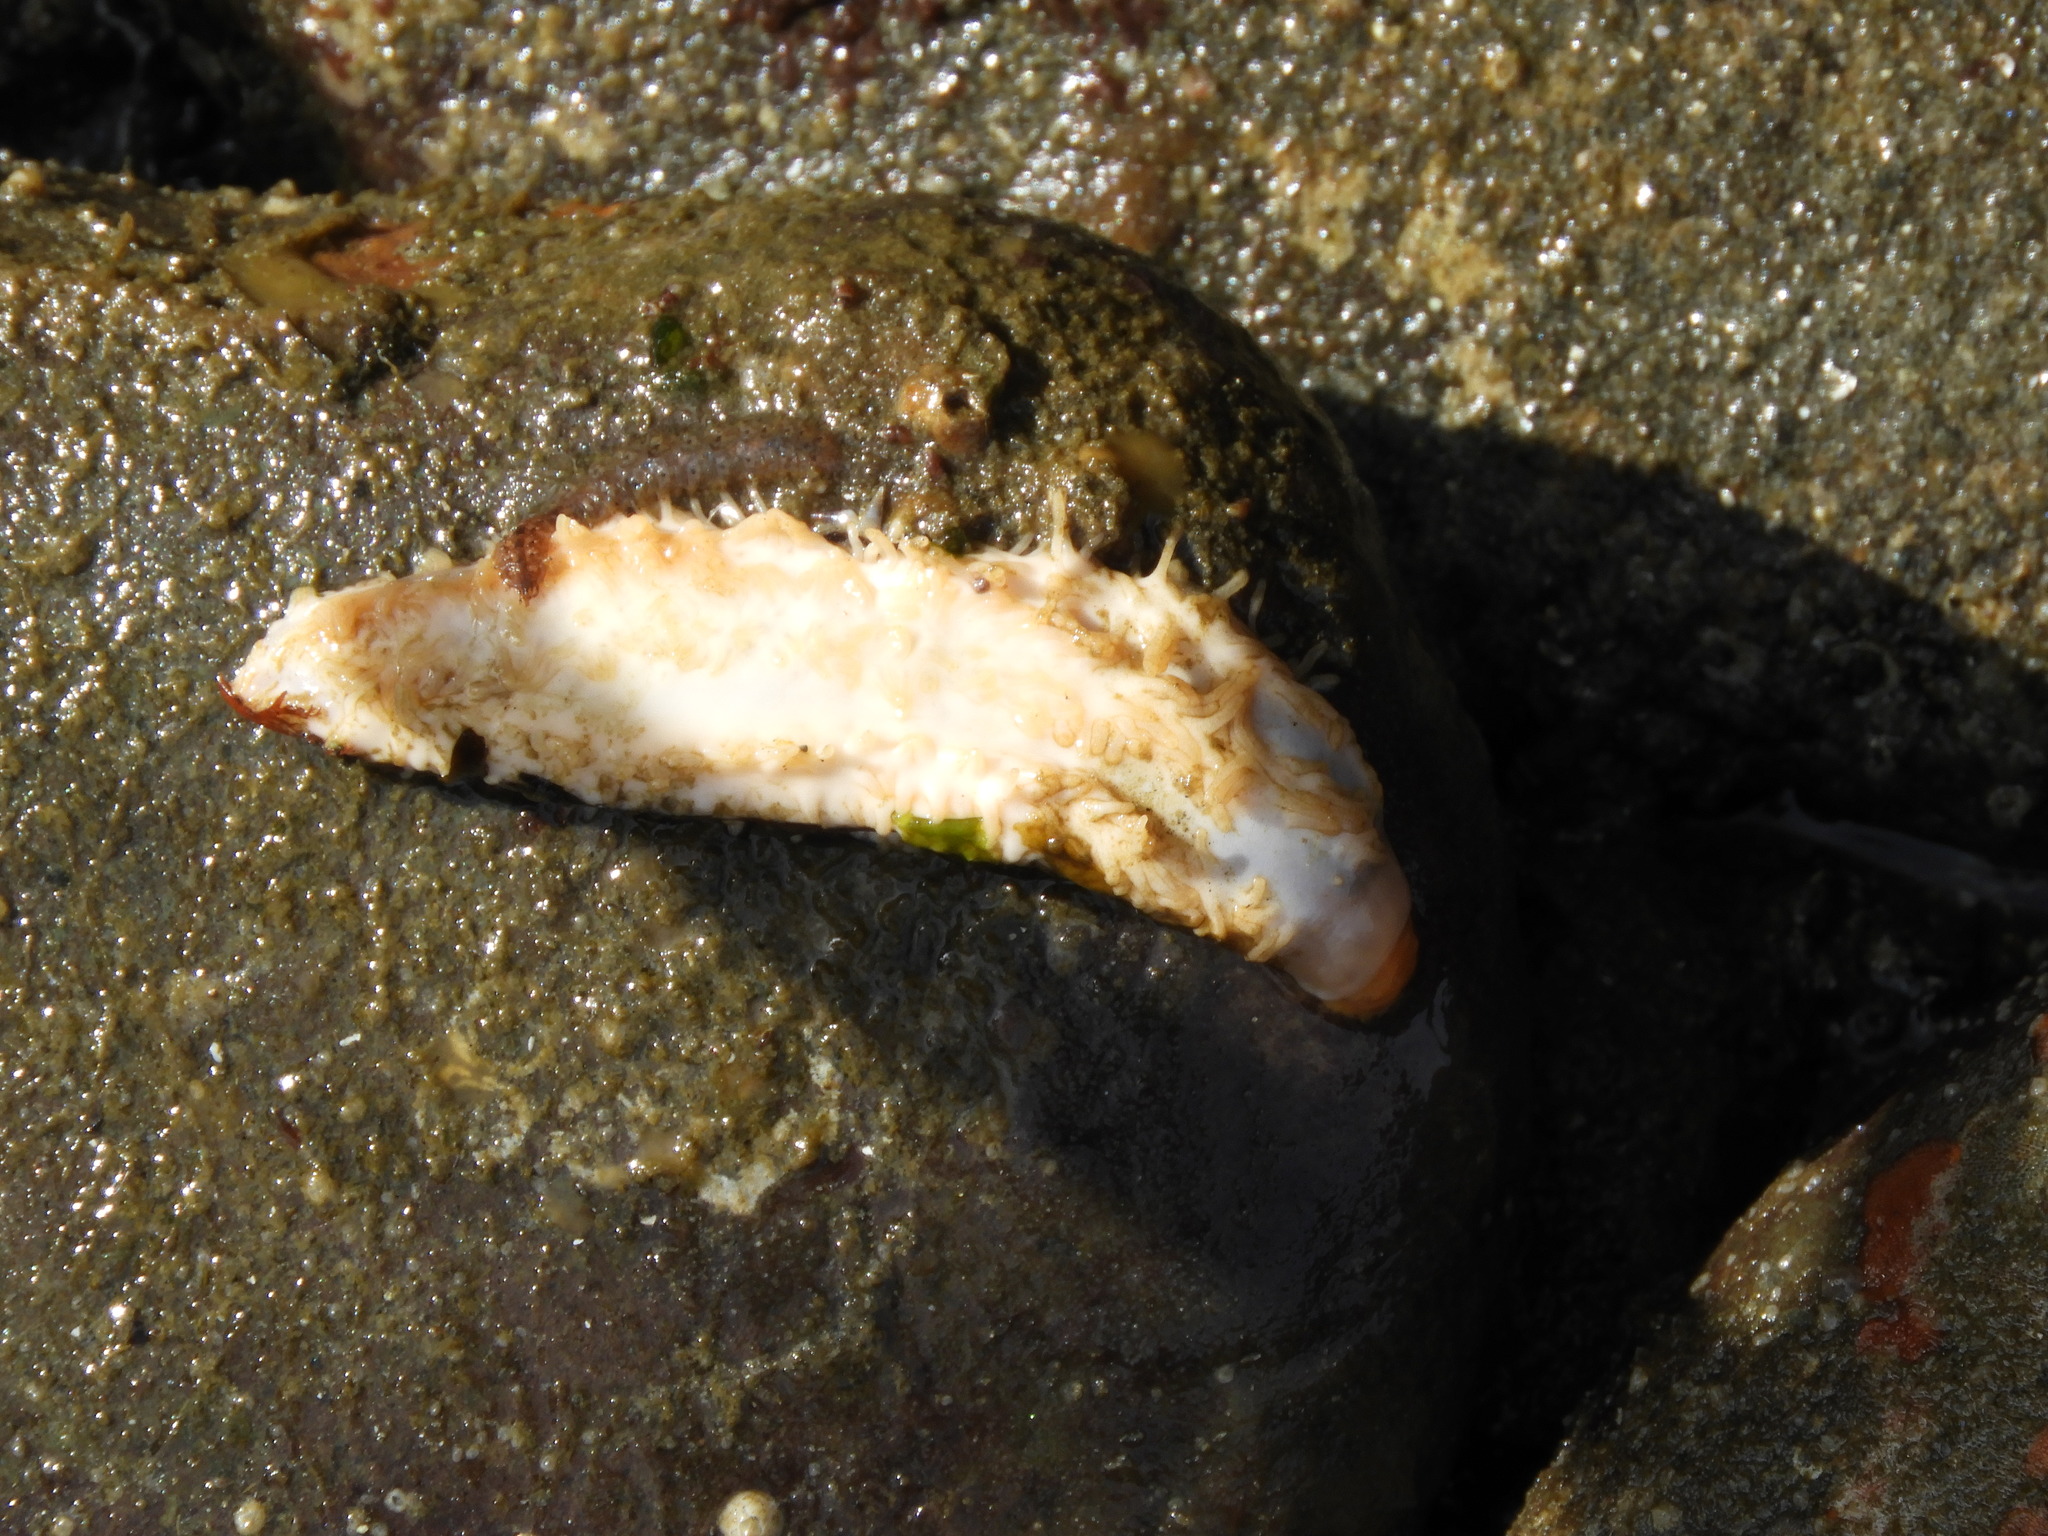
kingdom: Animalia
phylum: Echinodermata
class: Holothuroidea
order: Dendrochirotida
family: Sclerodactylidae
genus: Eupentacta
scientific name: Eupentacta quinquesemita
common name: Pentamerous sea cucumber
